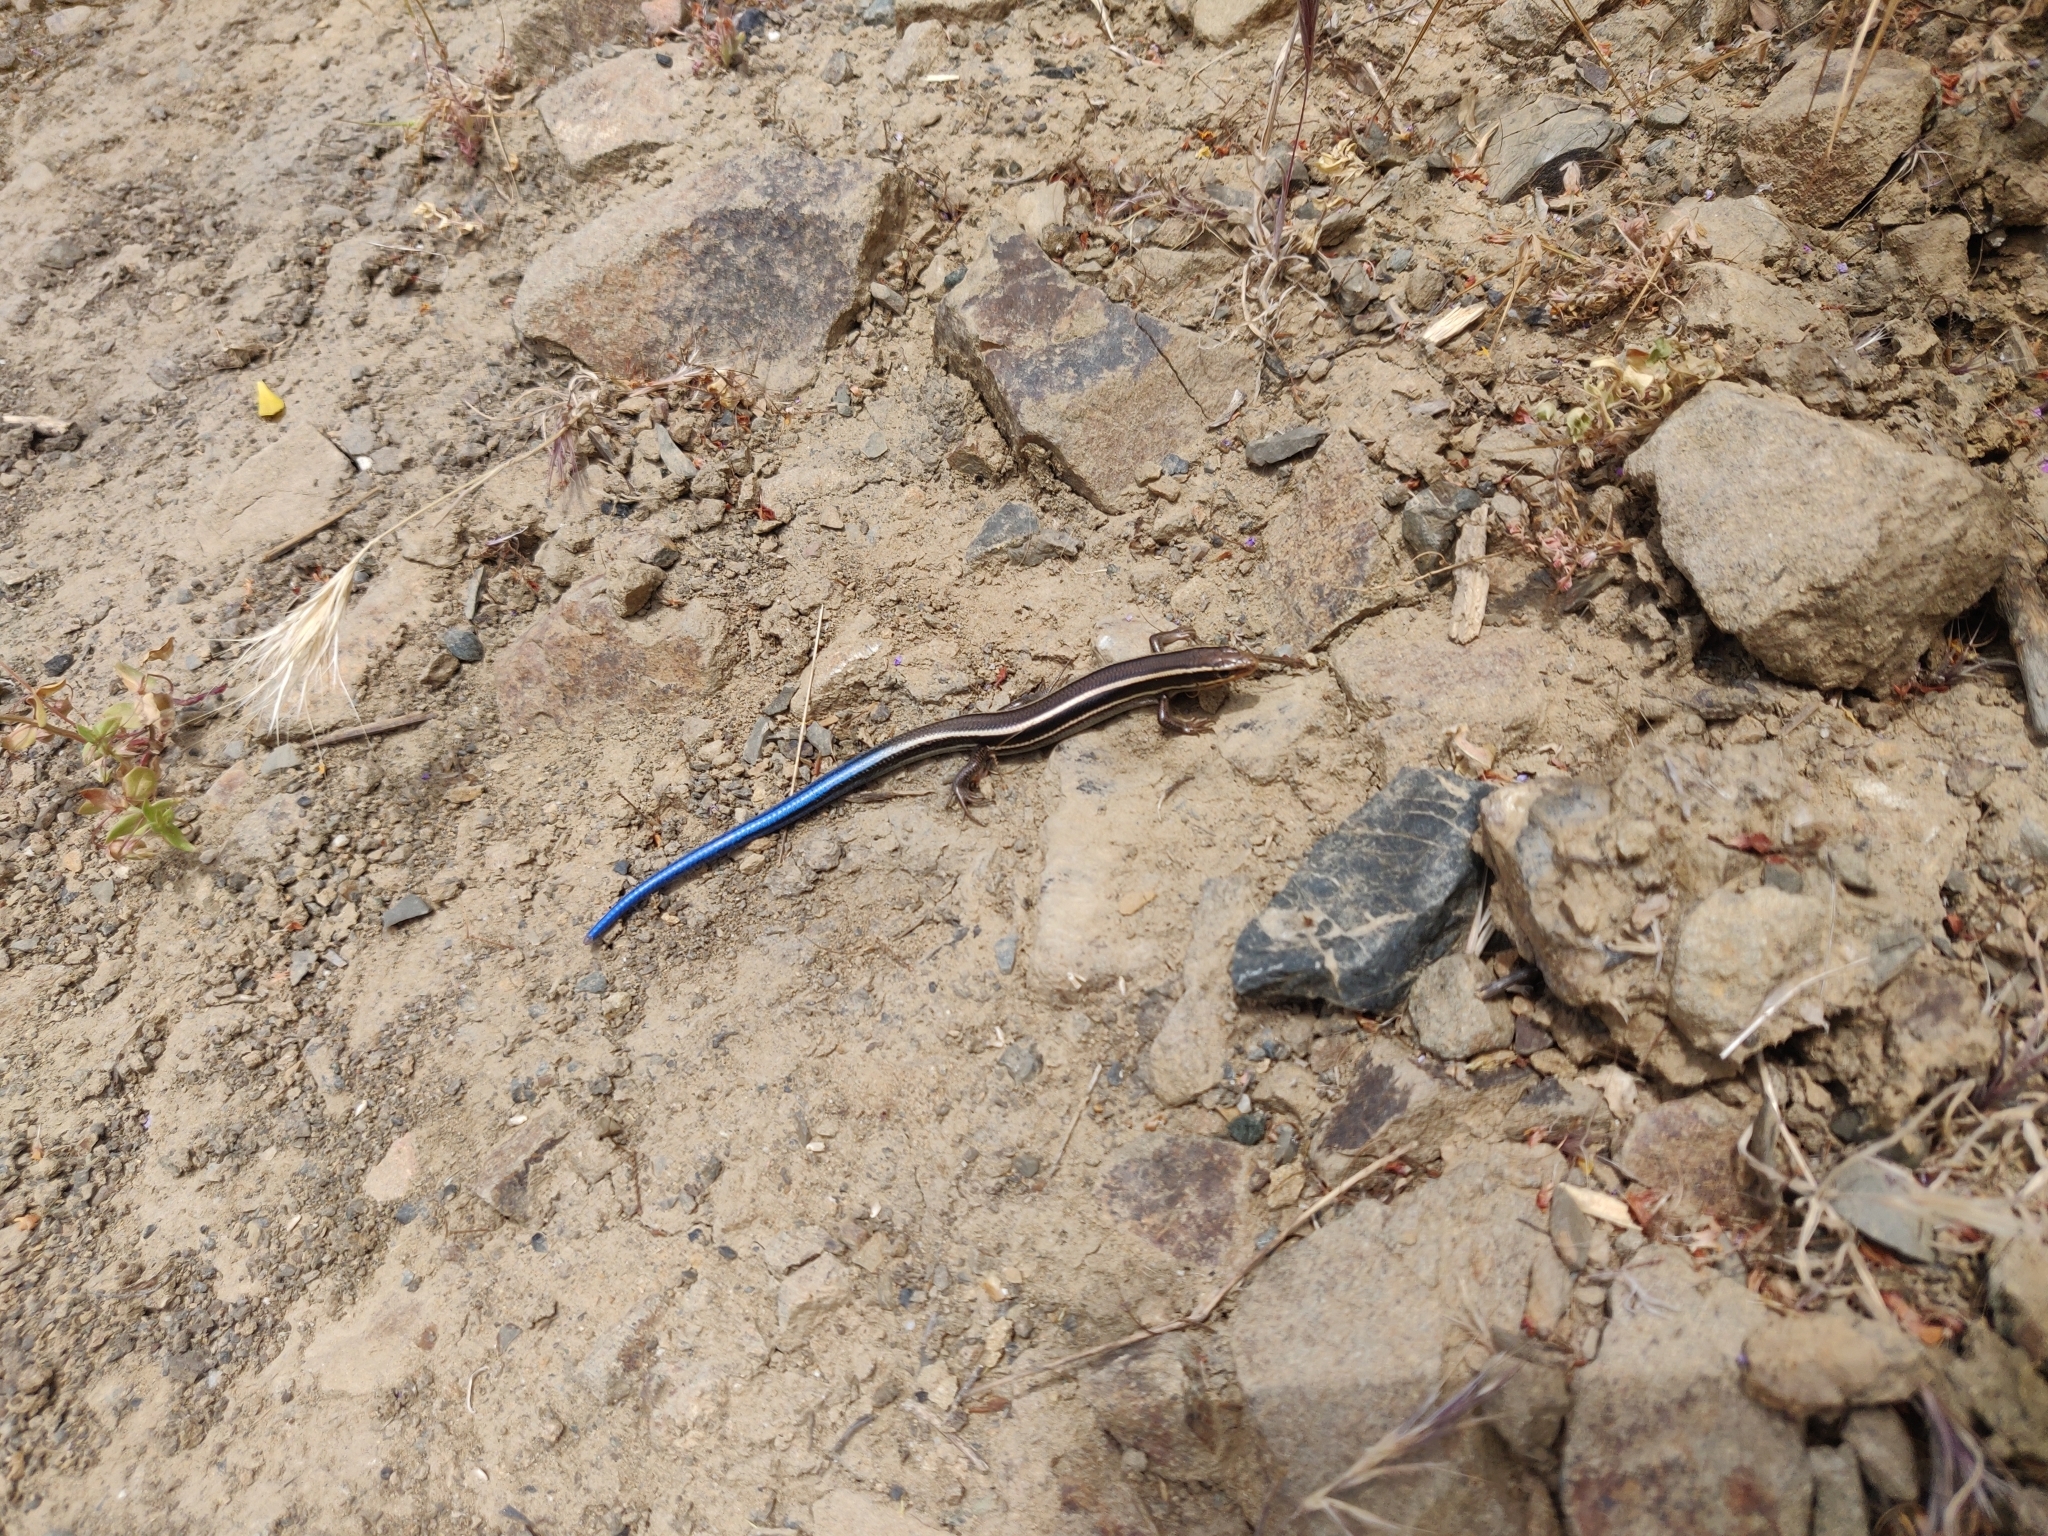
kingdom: Animalia
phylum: Chordata
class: Squamata
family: Scincidae
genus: Plestiodon
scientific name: Plestiodon skiltonianus
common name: Coronado island skink [interparietalis]
